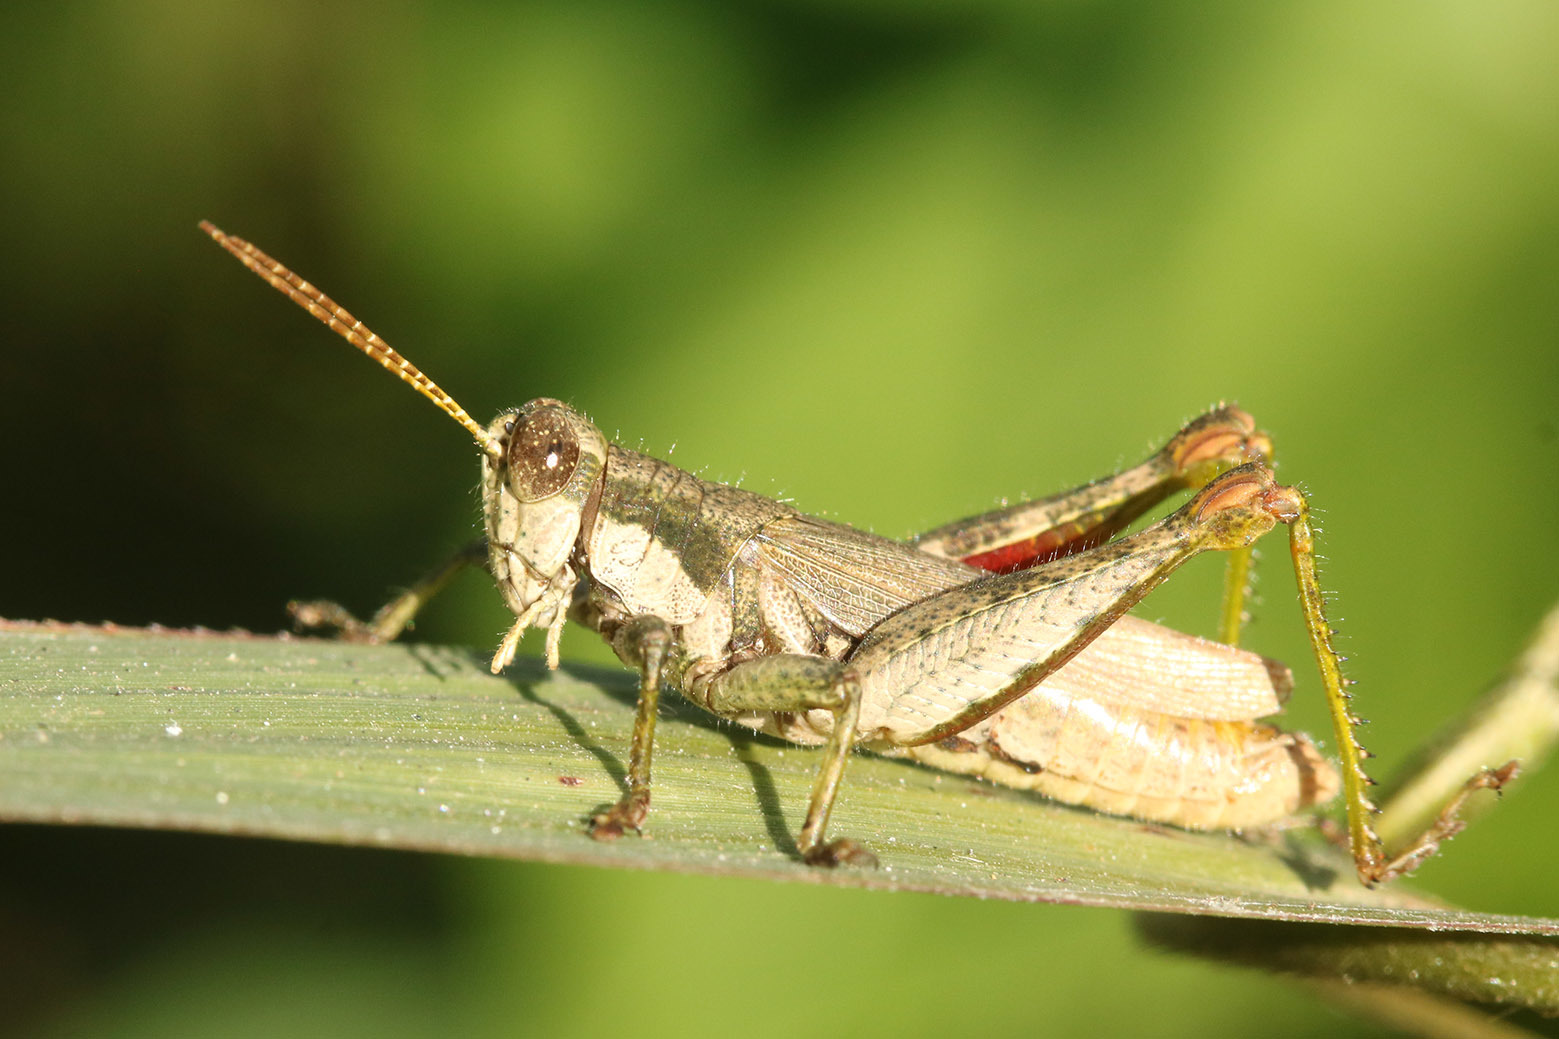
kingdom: Animalia
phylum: Arthropoda
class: Insecta
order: Orthoptera
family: Acrididae
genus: Ronderosia
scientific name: Ronderosia bergii
